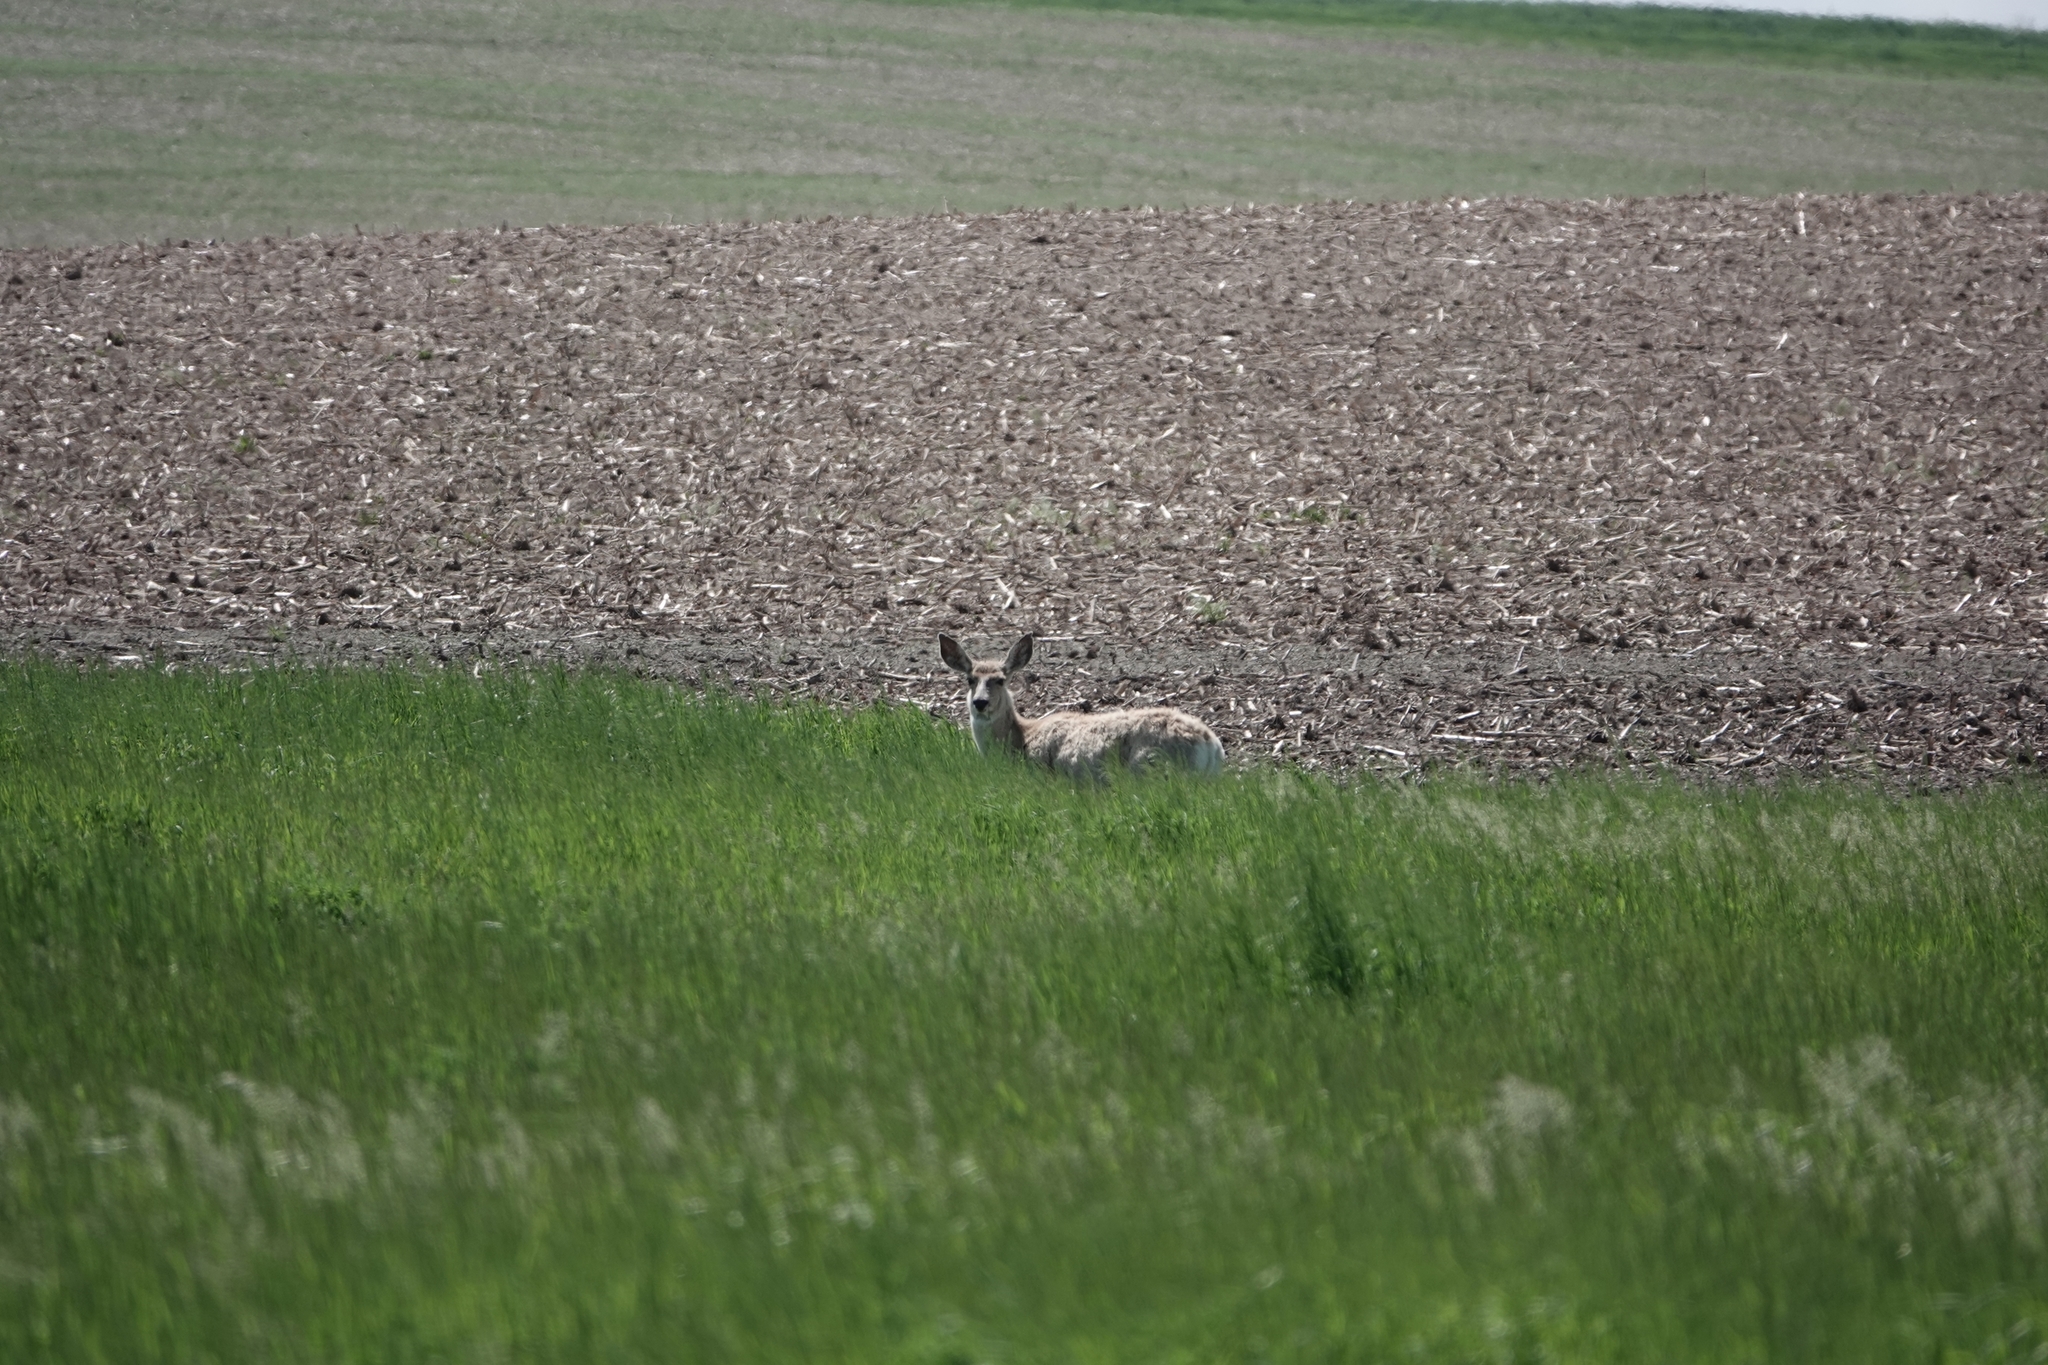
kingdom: Animalia
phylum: Chordata
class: Mammalia
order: Artiodactyla
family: Cervidae
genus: Odocoileus
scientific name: Odocoileus hemionus
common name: Mule deer
